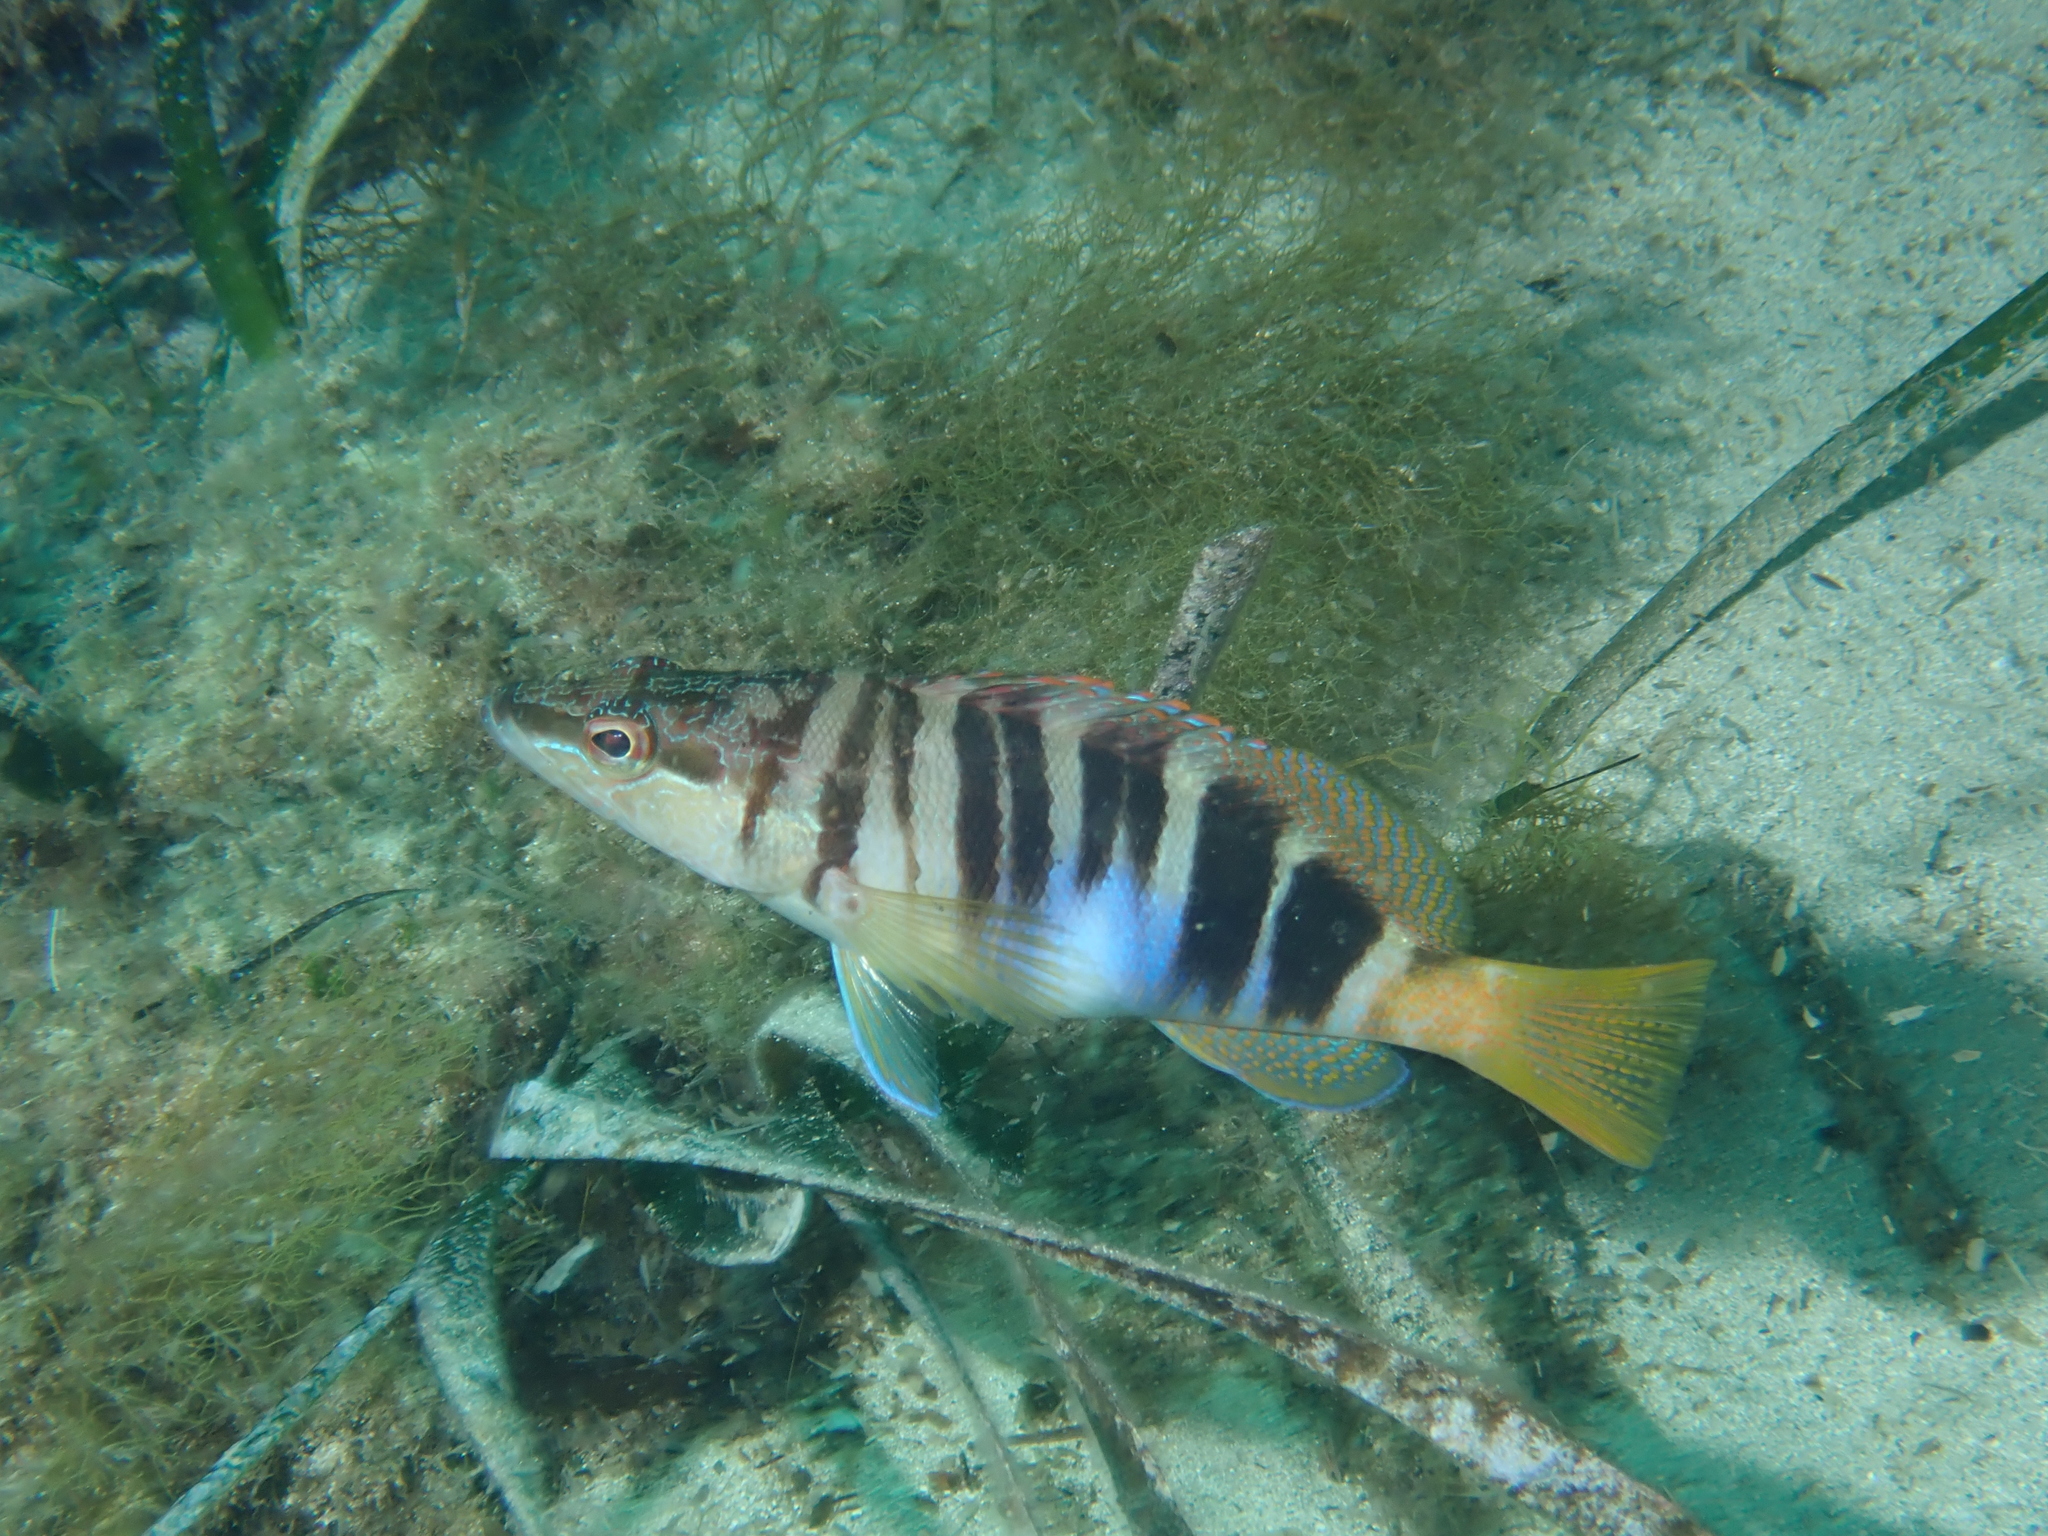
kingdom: Animalia
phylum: Chordata
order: Perciformes
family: Serranidae
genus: Serranus
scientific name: Serranus scriba
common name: Painted comber
